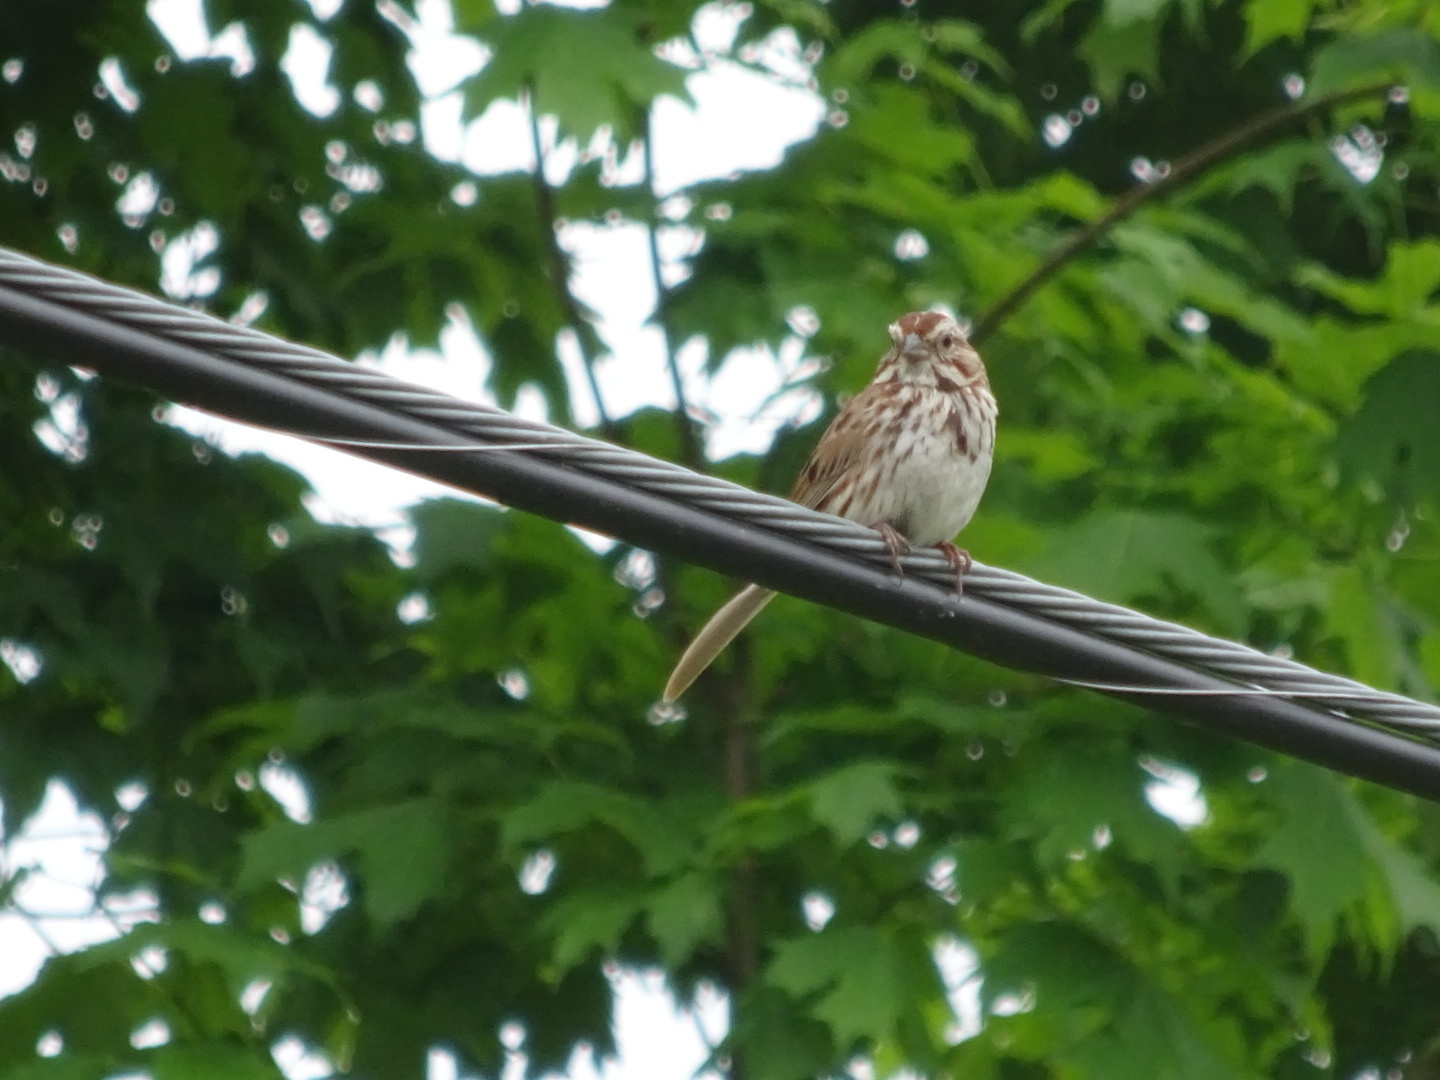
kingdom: Animalia
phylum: Chordata
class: Aves
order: Passeriformes
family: Passerellidae
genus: Melospiza
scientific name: Melospiza melodia
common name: Song sparrow
